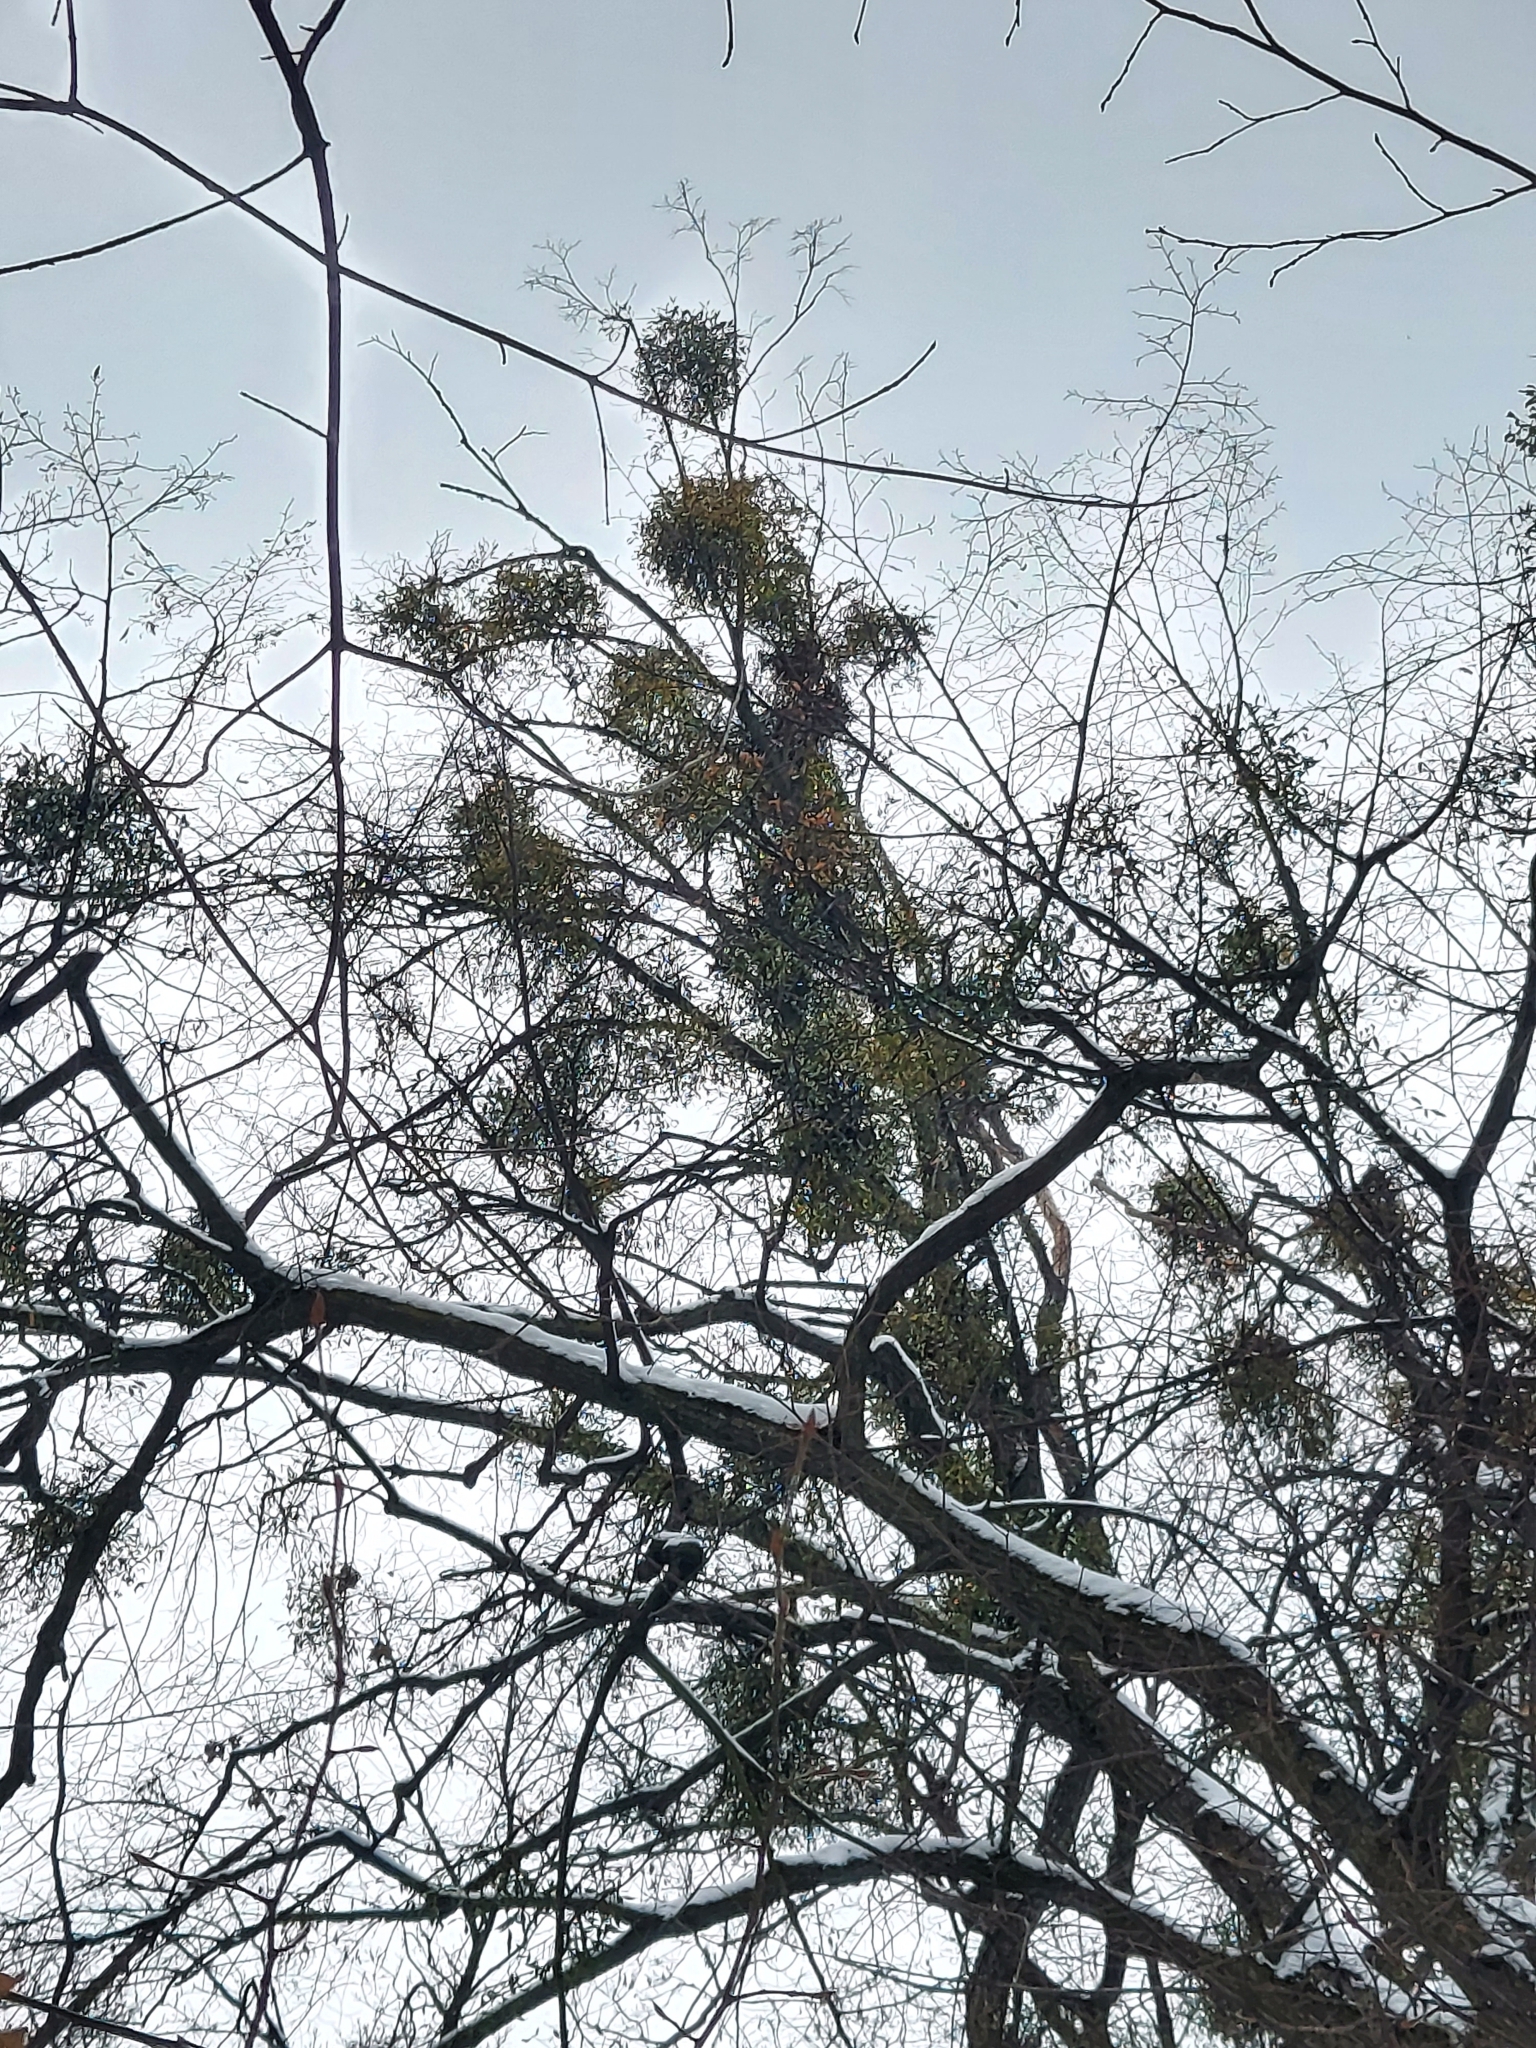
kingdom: Plantae
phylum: Tracheophyta
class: Magnoliopsida
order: Santalales
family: Viscaceae
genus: Viscum
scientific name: Viscum album
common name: Mistletoe
